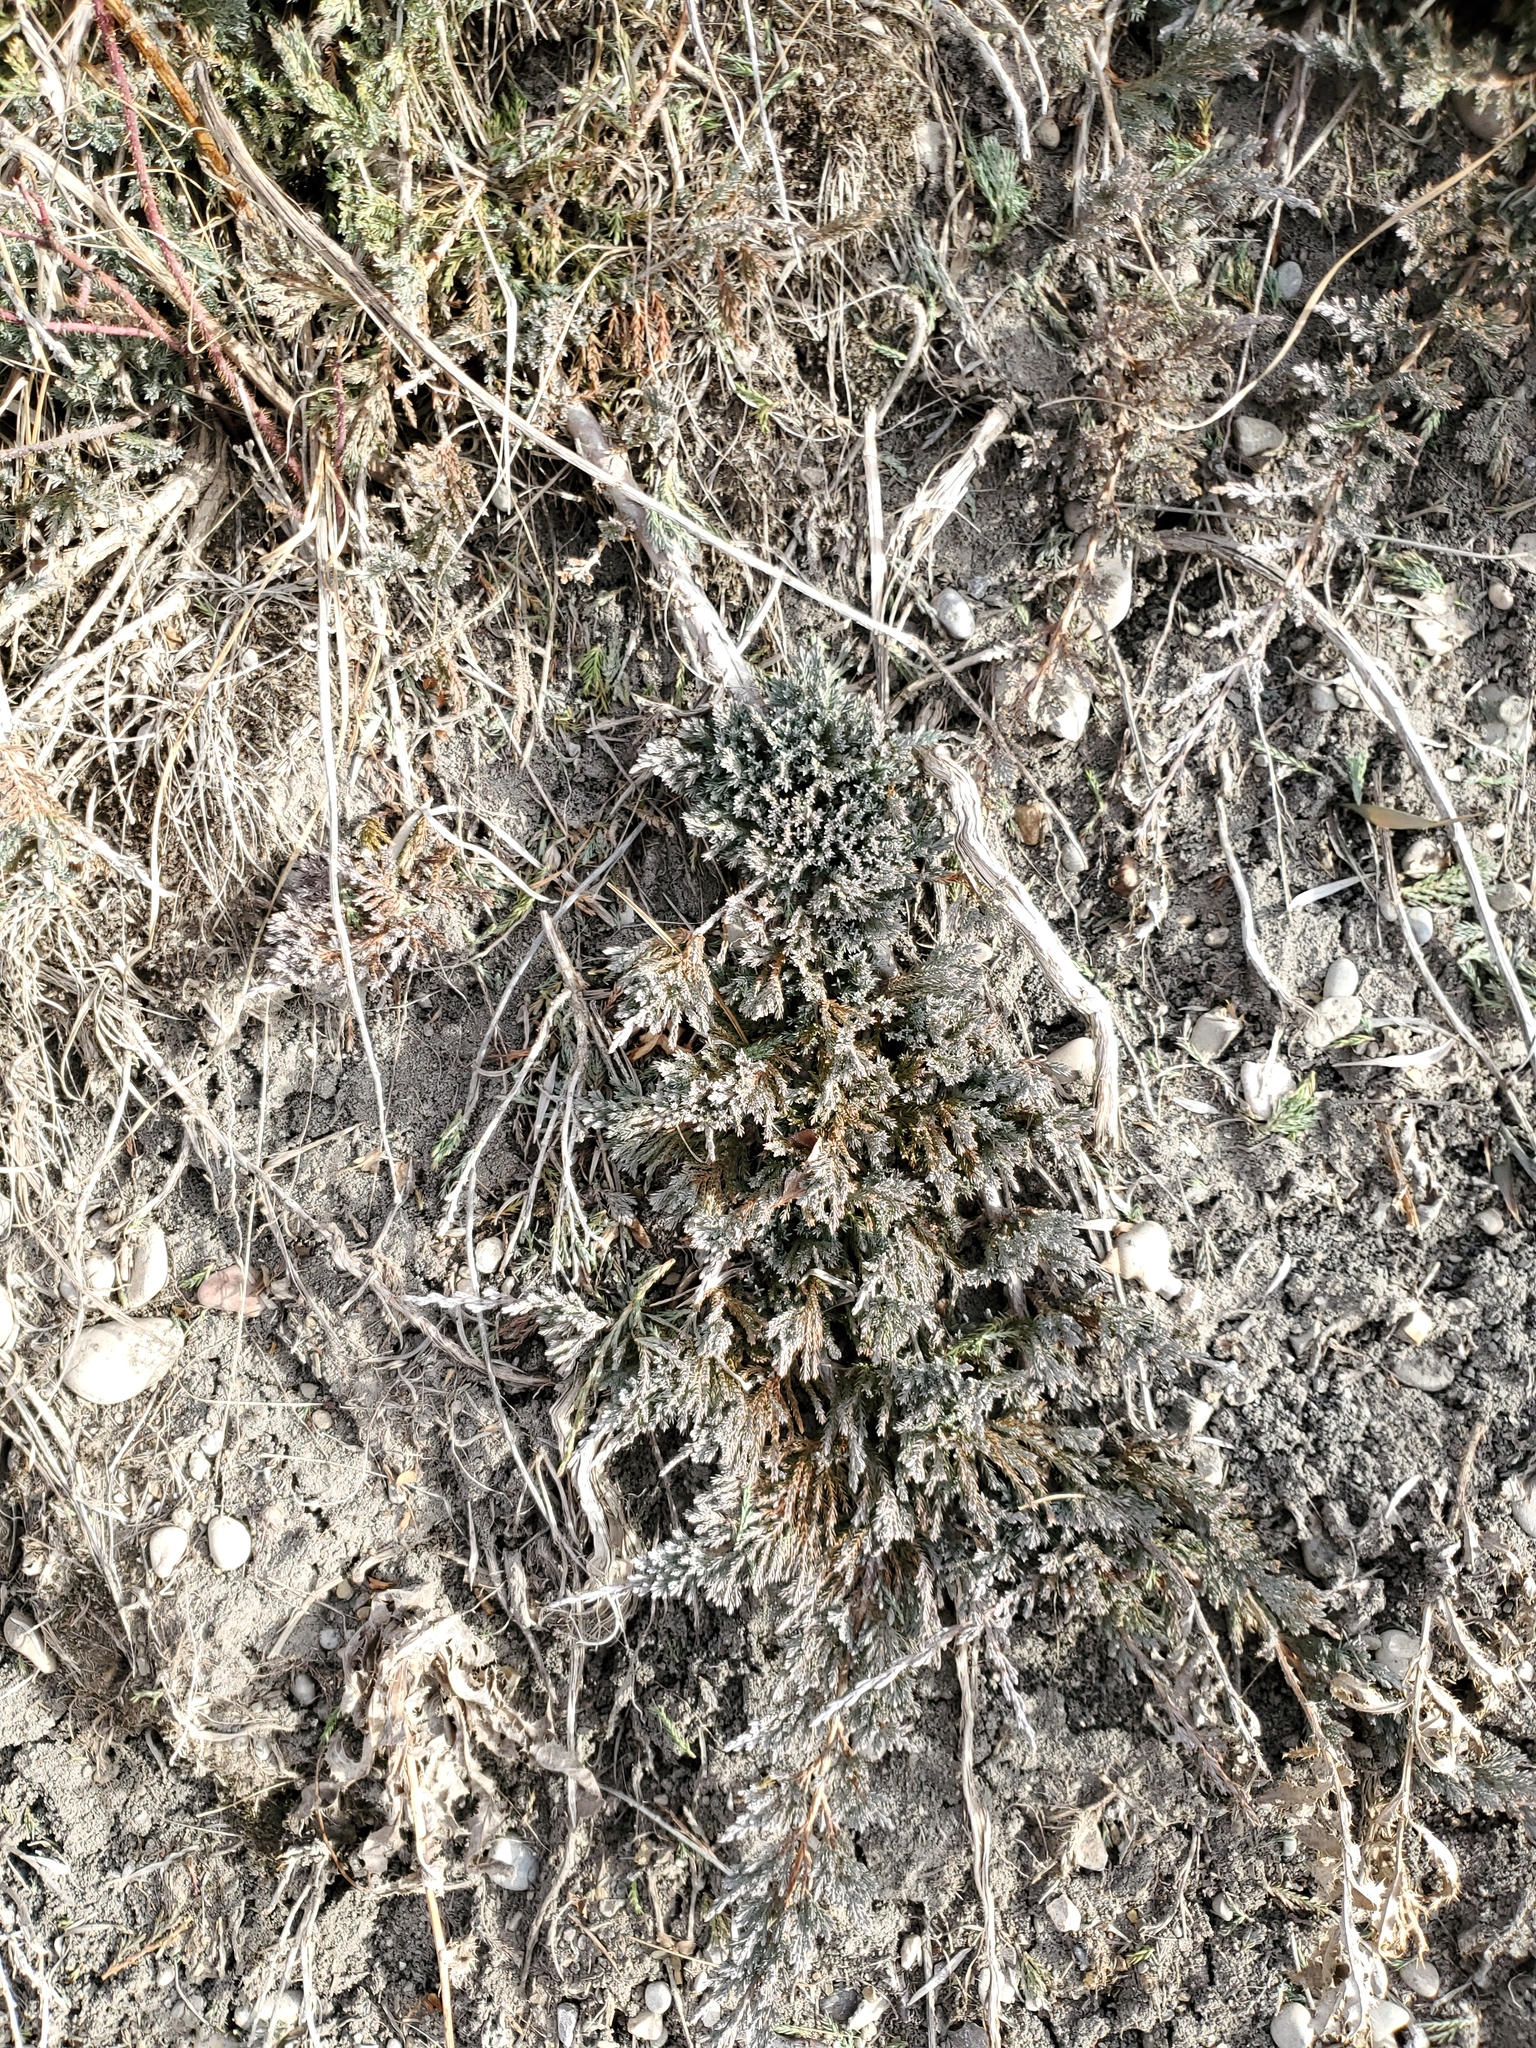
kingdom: Plantae
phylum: Tracheophyta
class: Pinopsida
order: Pinales
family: Cupressaceae
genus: Juniperus
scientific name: Juniperus horizontalis
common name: Creeping juniper
